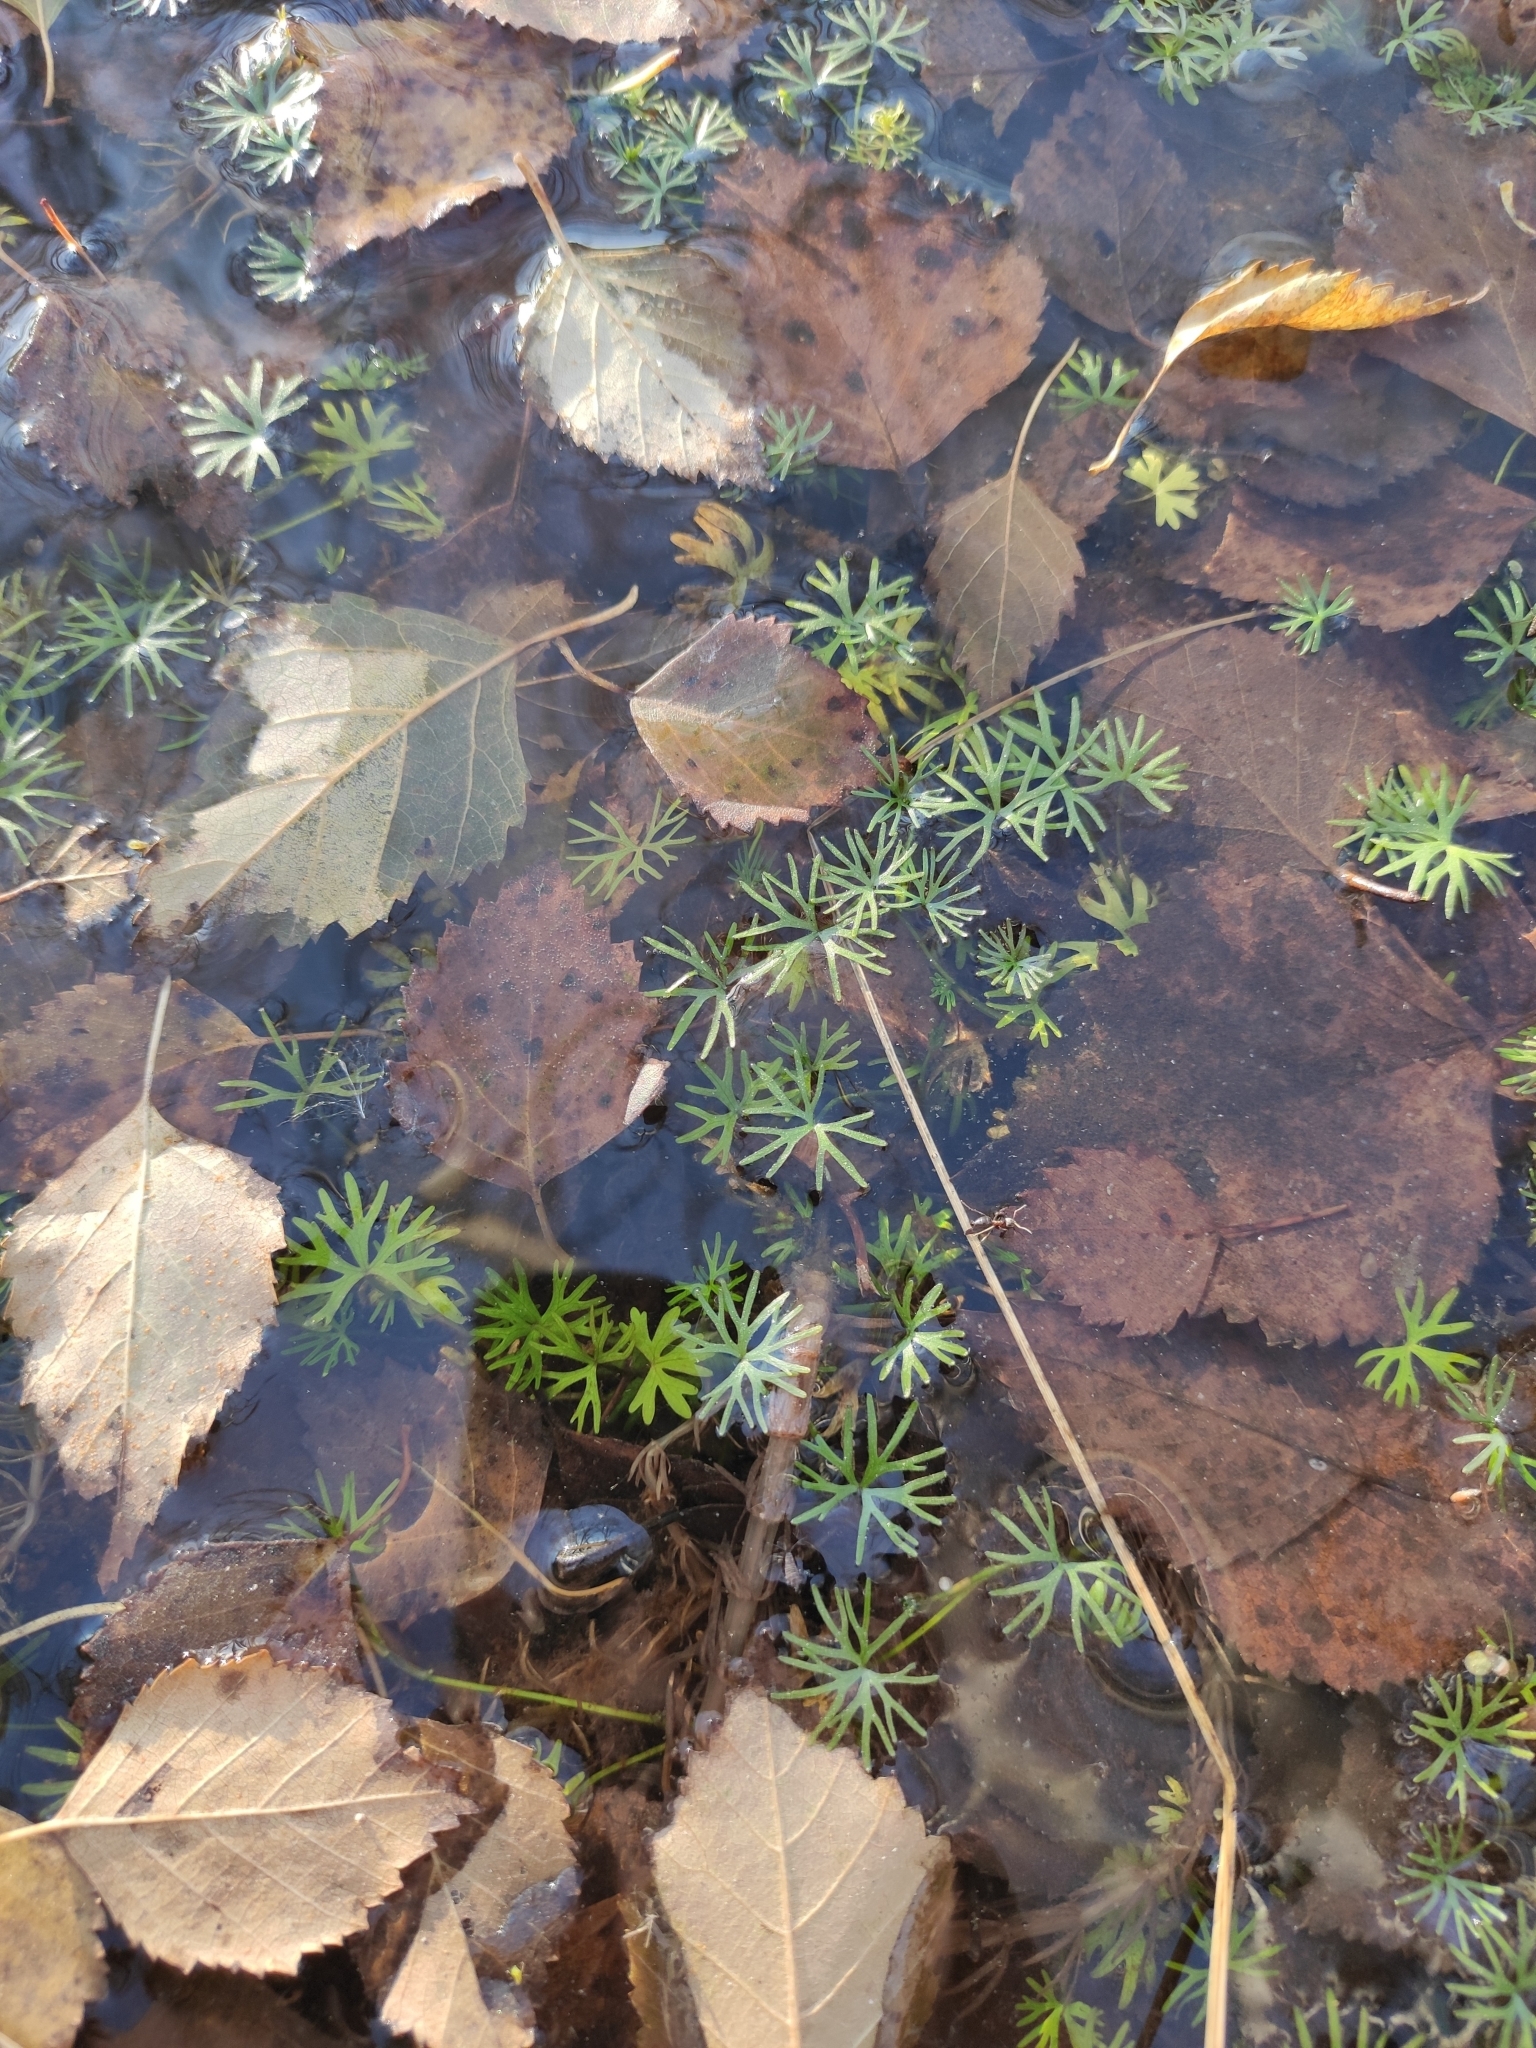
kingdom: Plantae
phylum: Tracheophyta
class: Magnoliopsida
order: Ranunculales
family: Ranunculaceae
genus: Ranunculus
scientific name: Ranunculus gmelinii
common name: Gmelin's buttercup
